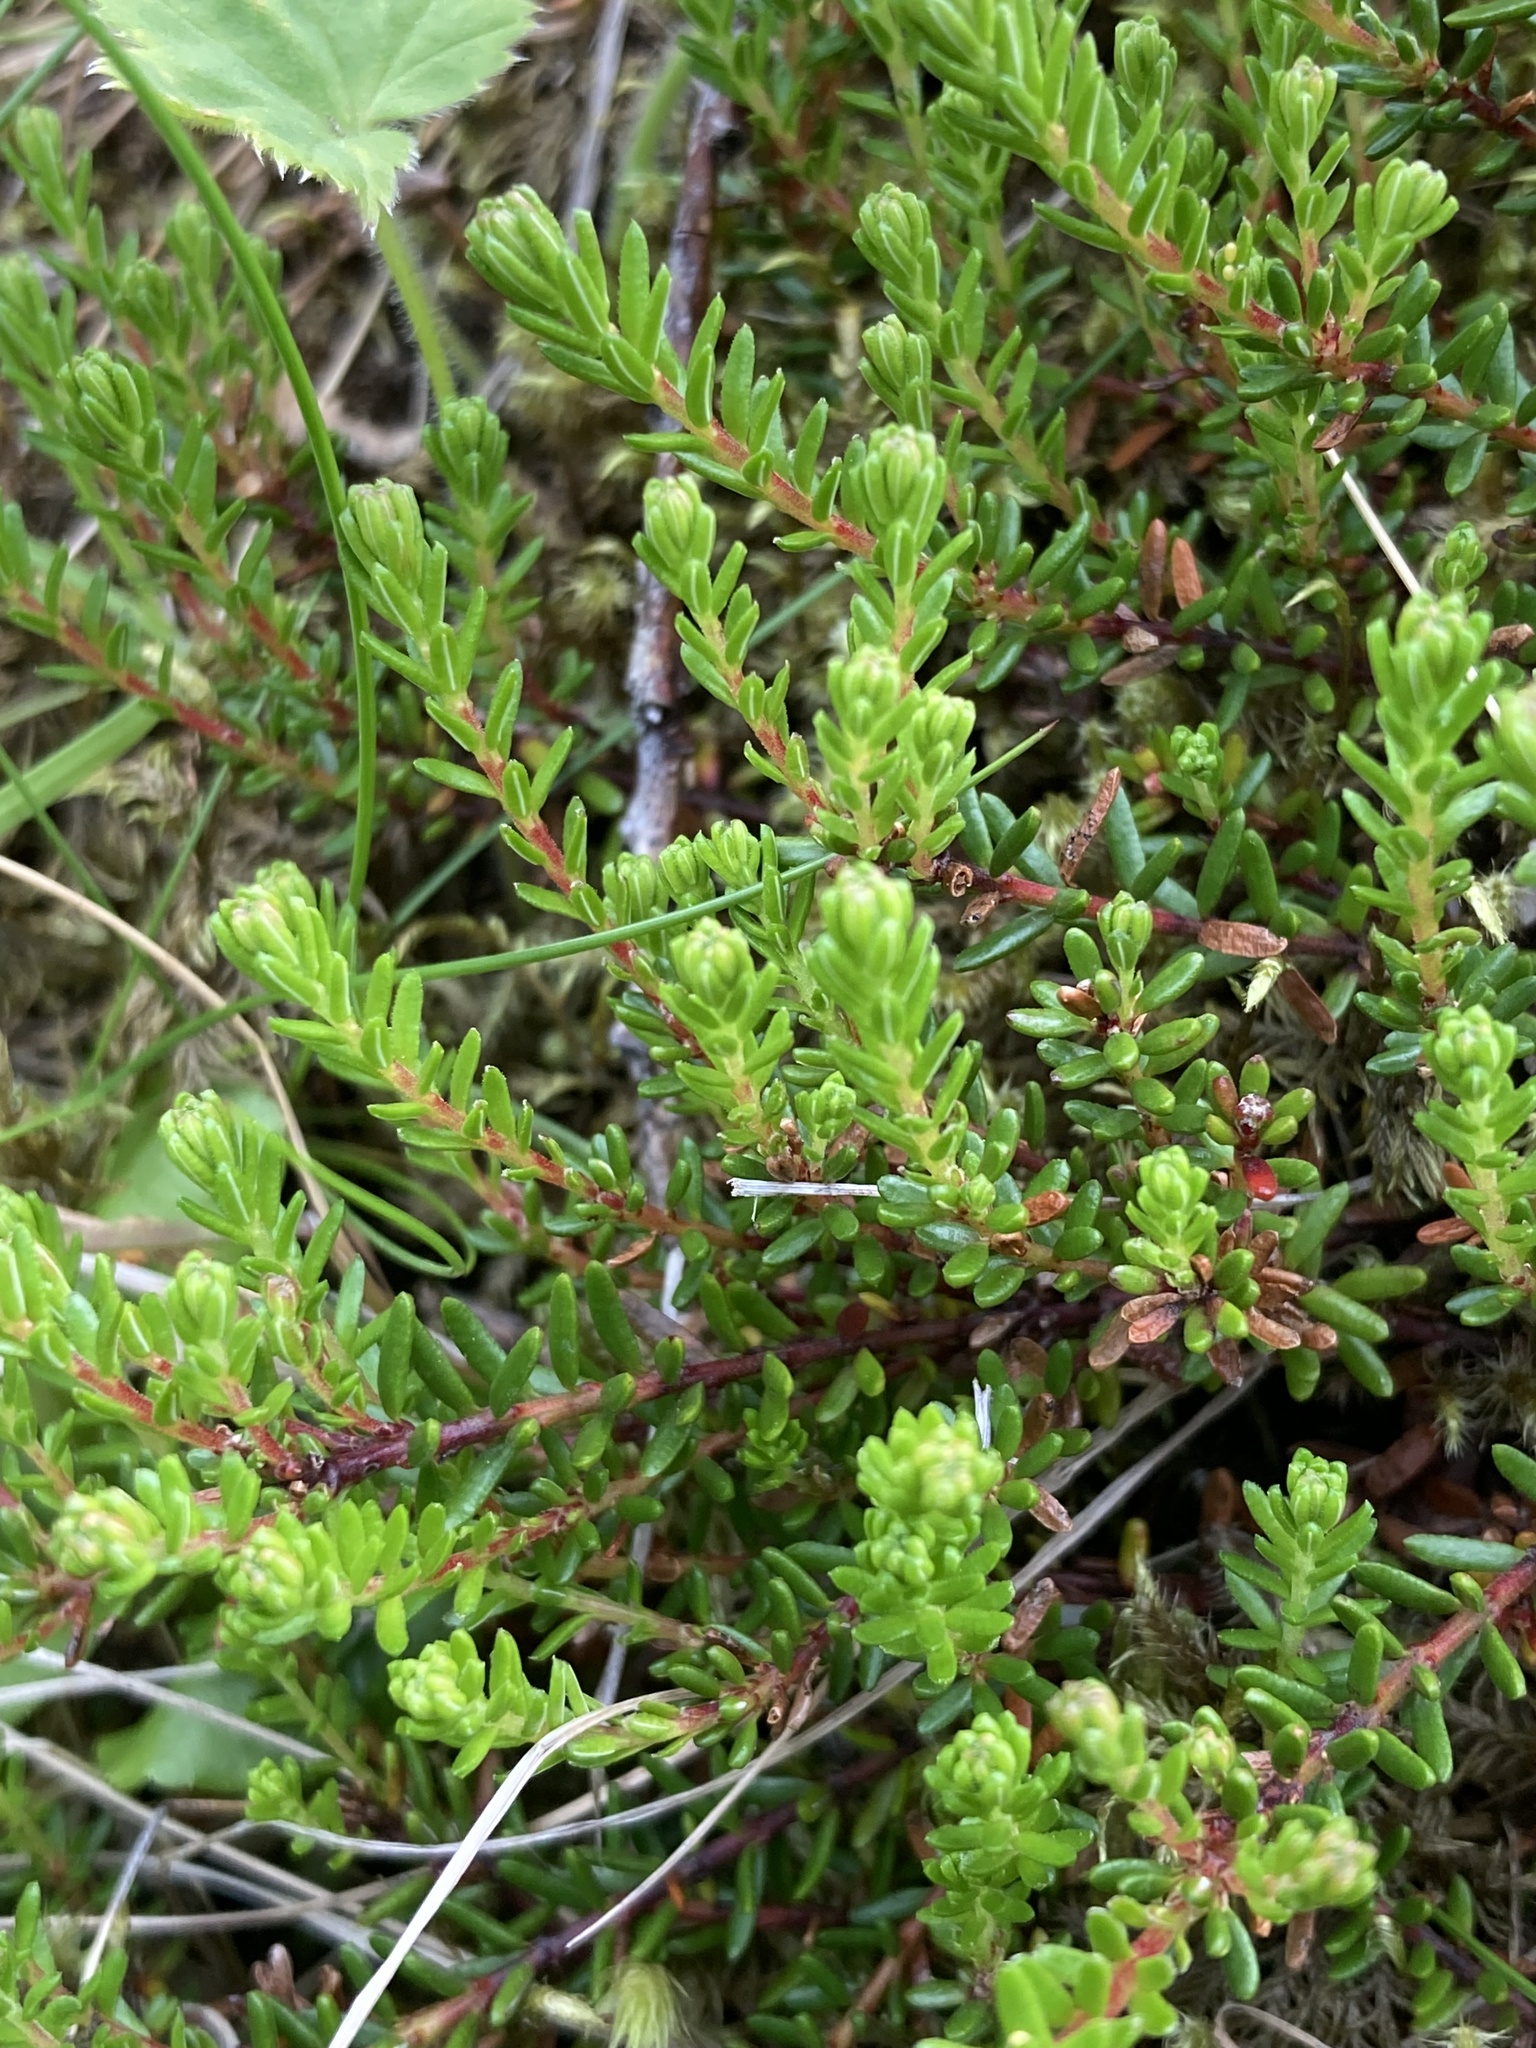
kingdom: Plantae
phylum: Tracheophyta
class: Magnoliopsida
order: Ericales
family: Ericaceae
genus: Empetrum
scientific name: Empetrum nigrum
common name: Black crowberry
